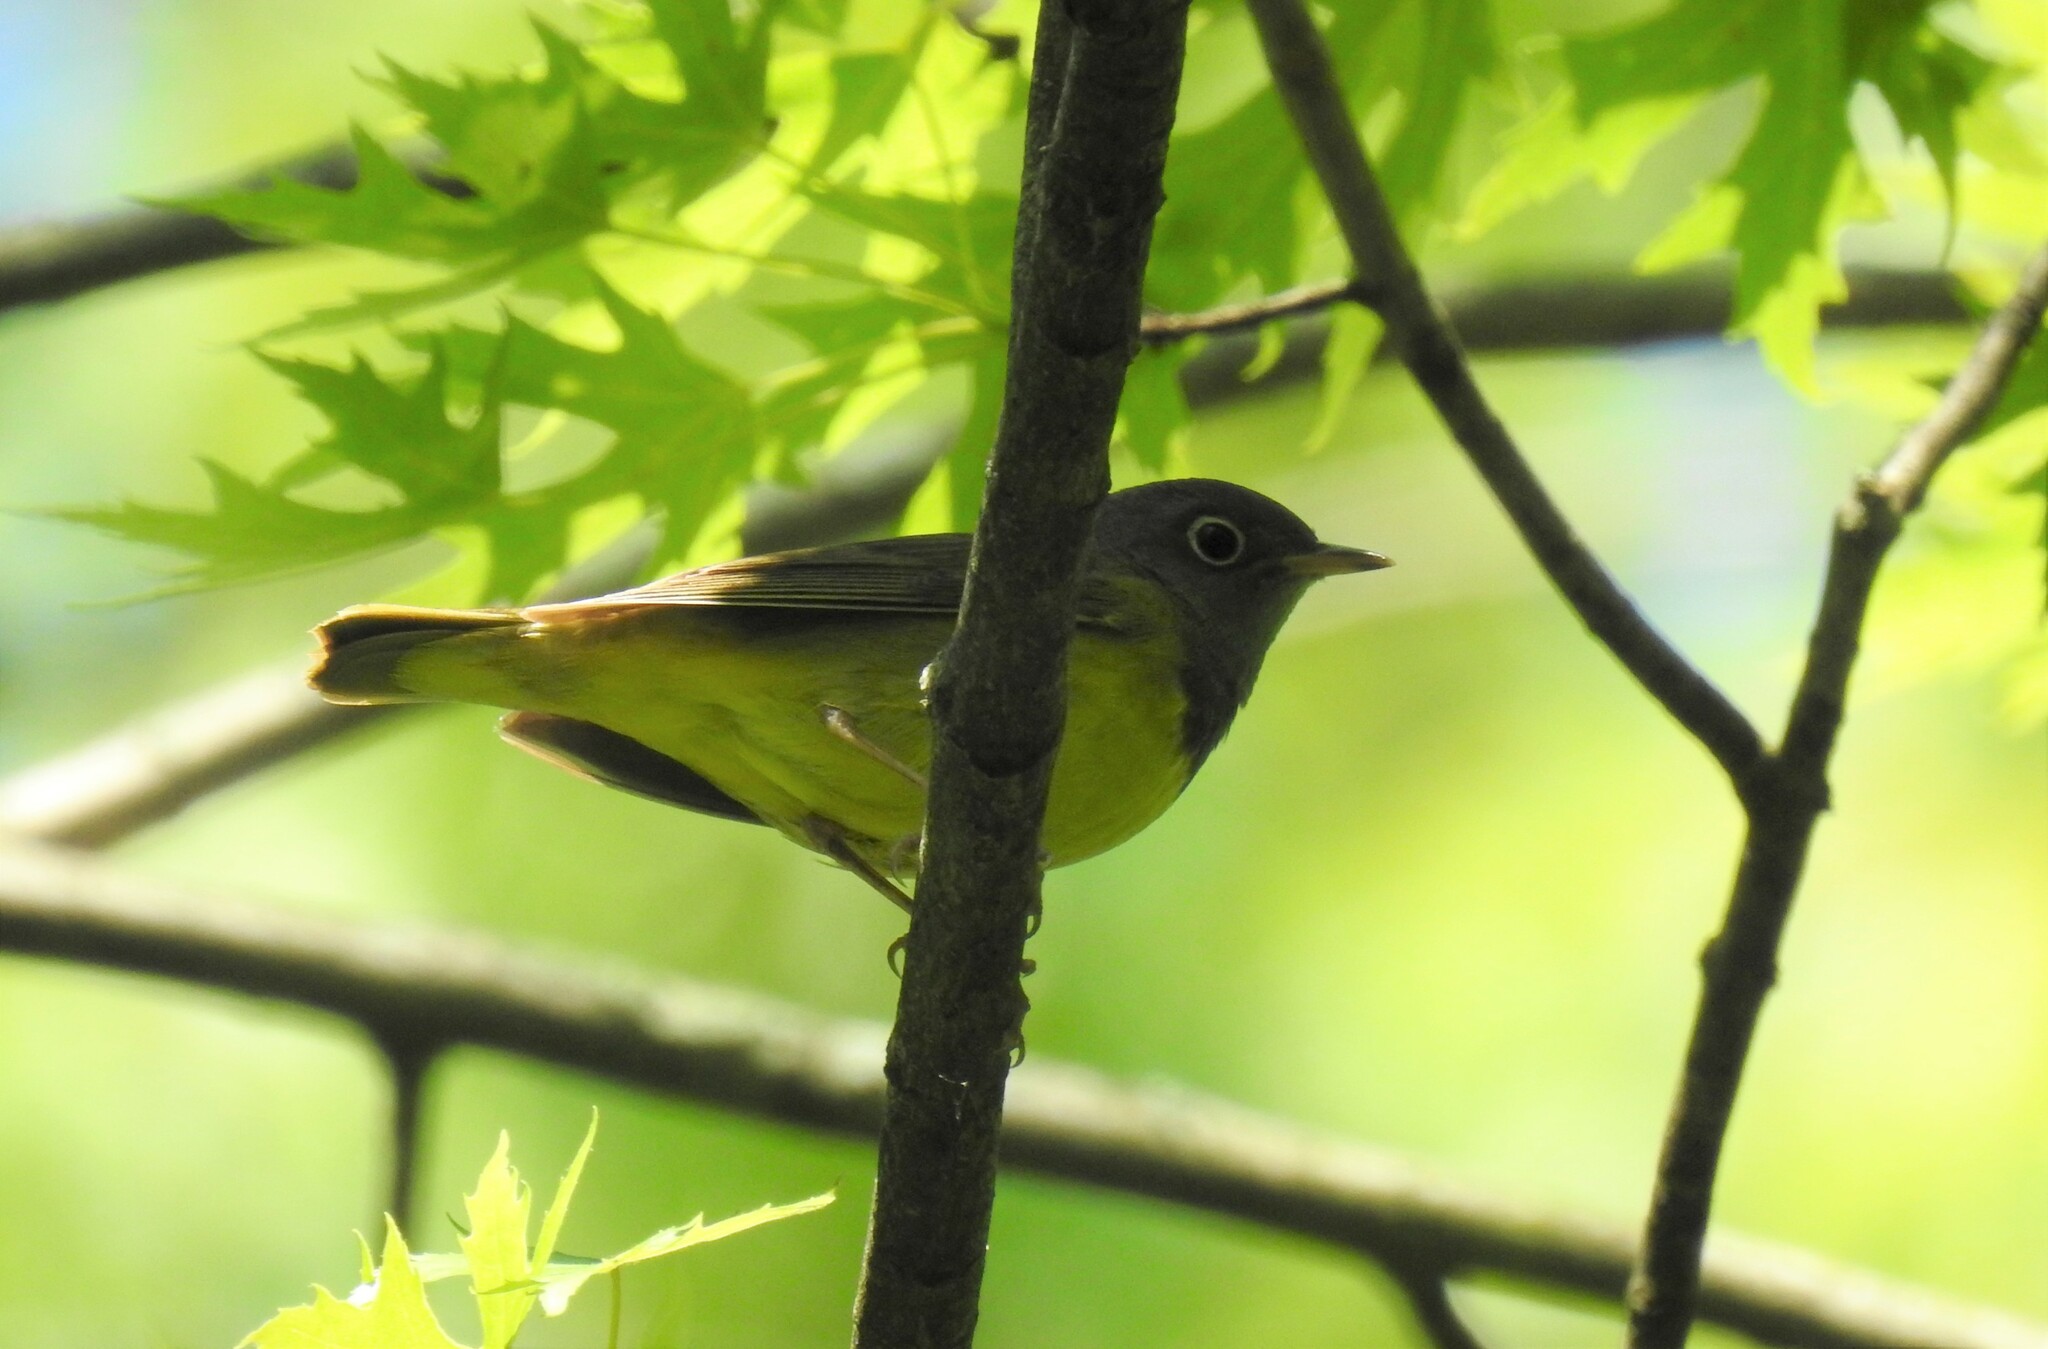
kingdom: Animalia
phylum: Chordata
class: Aves
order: Passeriformes
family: Parulidae
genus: Oporornis
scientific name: Oporornis agilis
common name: Connecticut warbler
